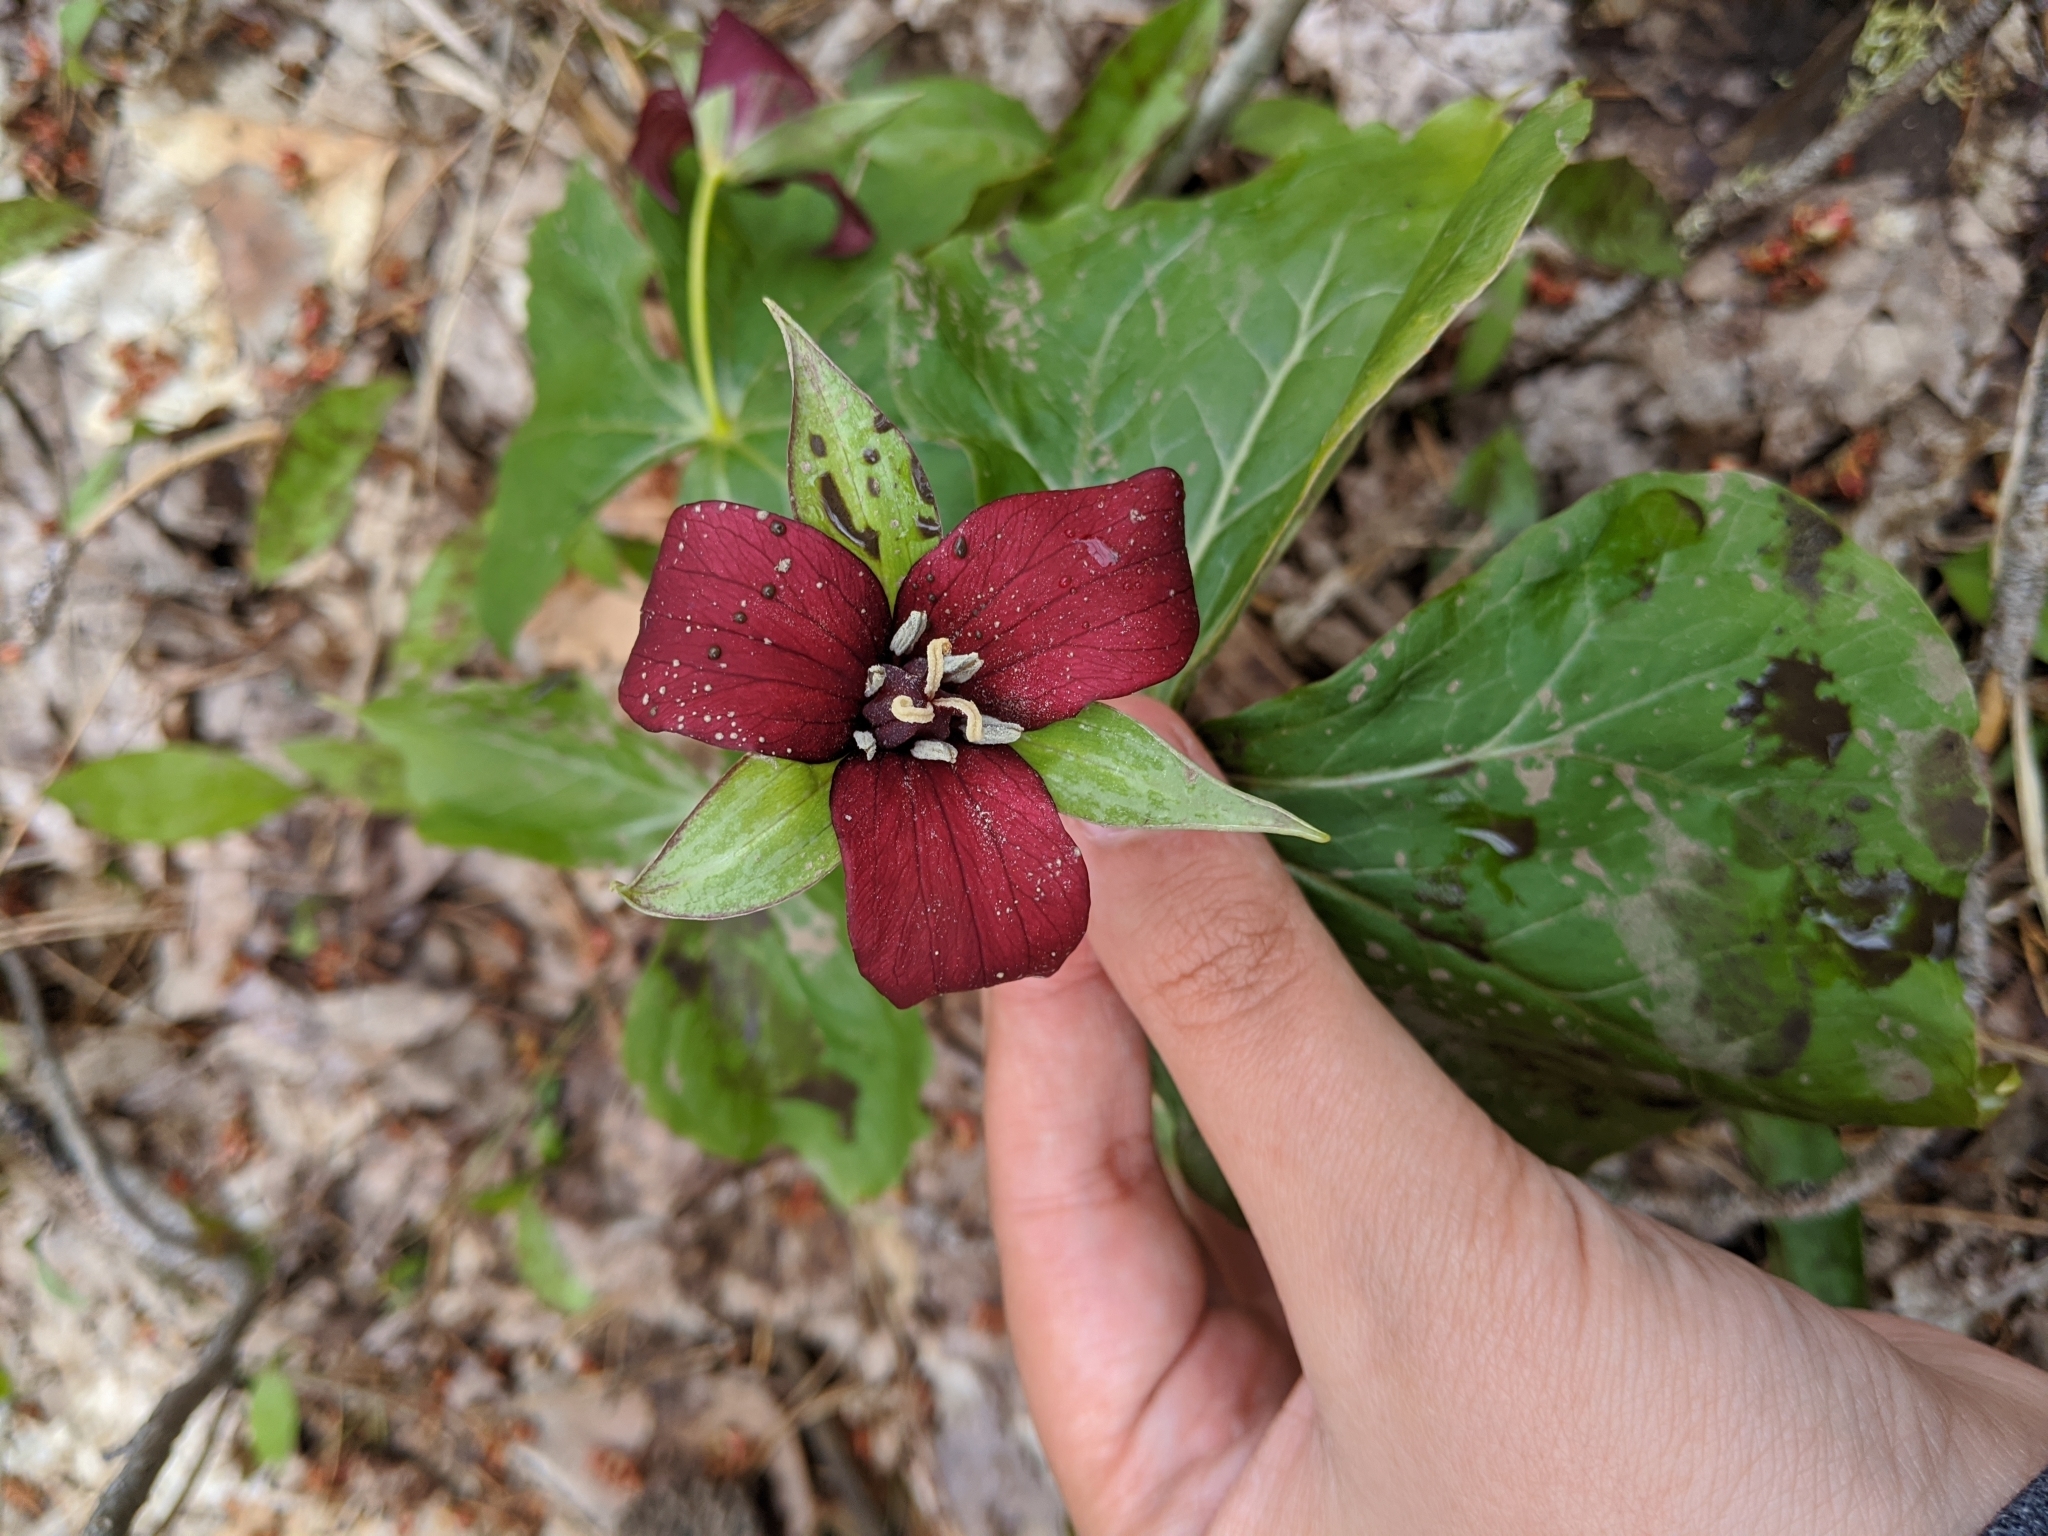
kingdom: Plantae
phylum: Tracheophyta
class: Liliopsida
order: Liliales
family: Melanthiaceae
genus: Trillium
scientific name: Trillium erectum
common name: Purple trillium
